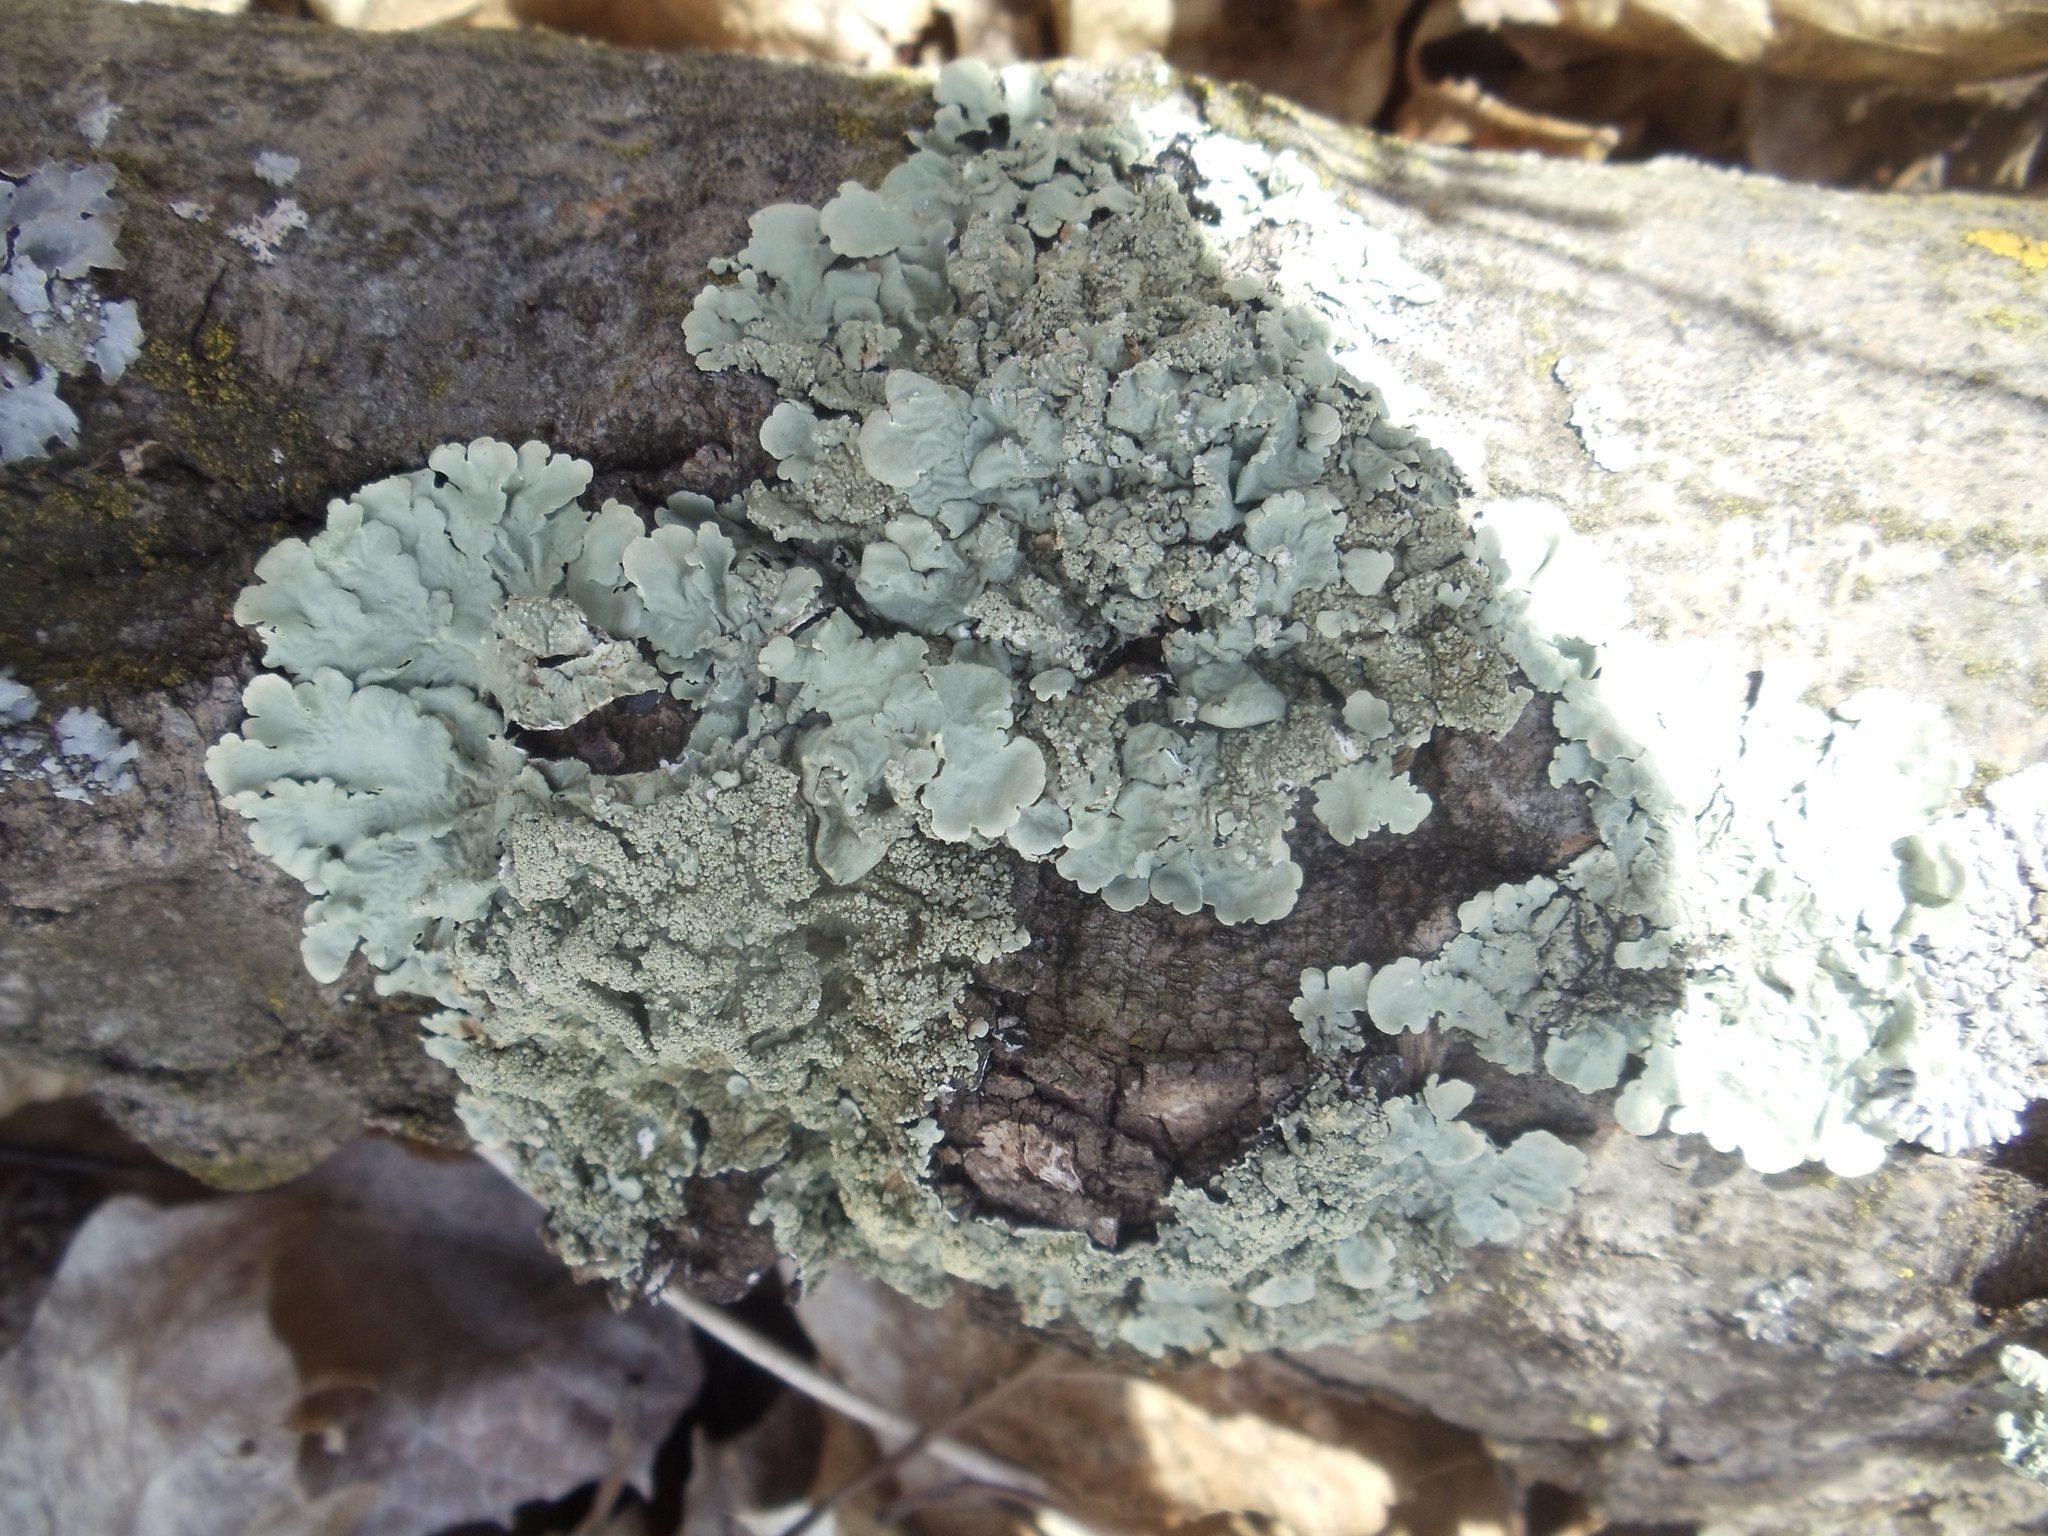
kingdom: Fungi
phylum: Ascomycota
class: Lecanoromycetes
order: Lecanorales
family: Parmeliaceae
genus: Flavoparmelia
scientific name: Flavoparmelia caperata
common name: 40-mile per hour lichen
